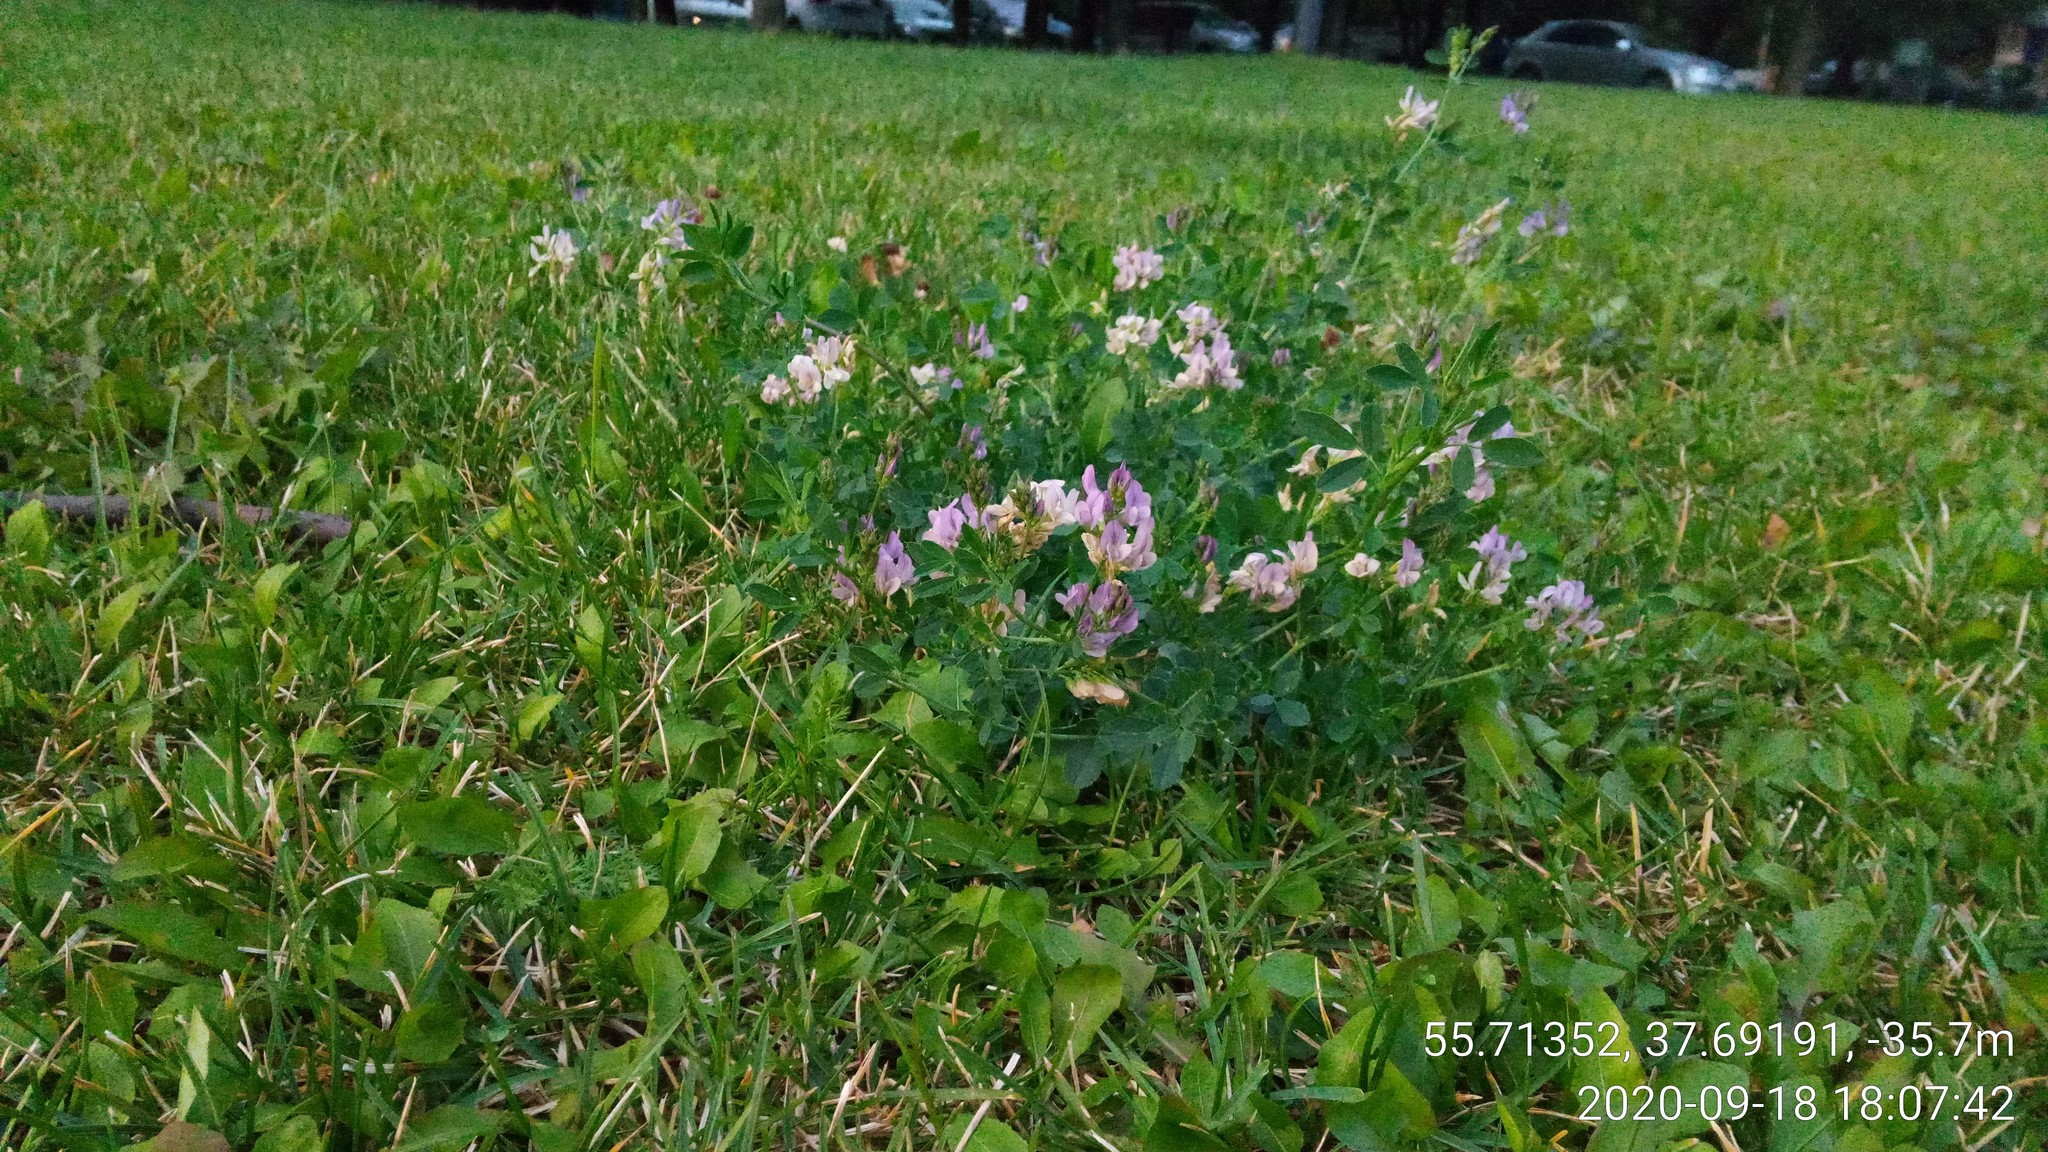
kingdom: Plantae
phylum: Tracheophyta
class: Magnoliopsida
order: Fabales
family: Fabaceae
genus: Medicago
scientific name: Medicago varia
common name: Sand lucerne
